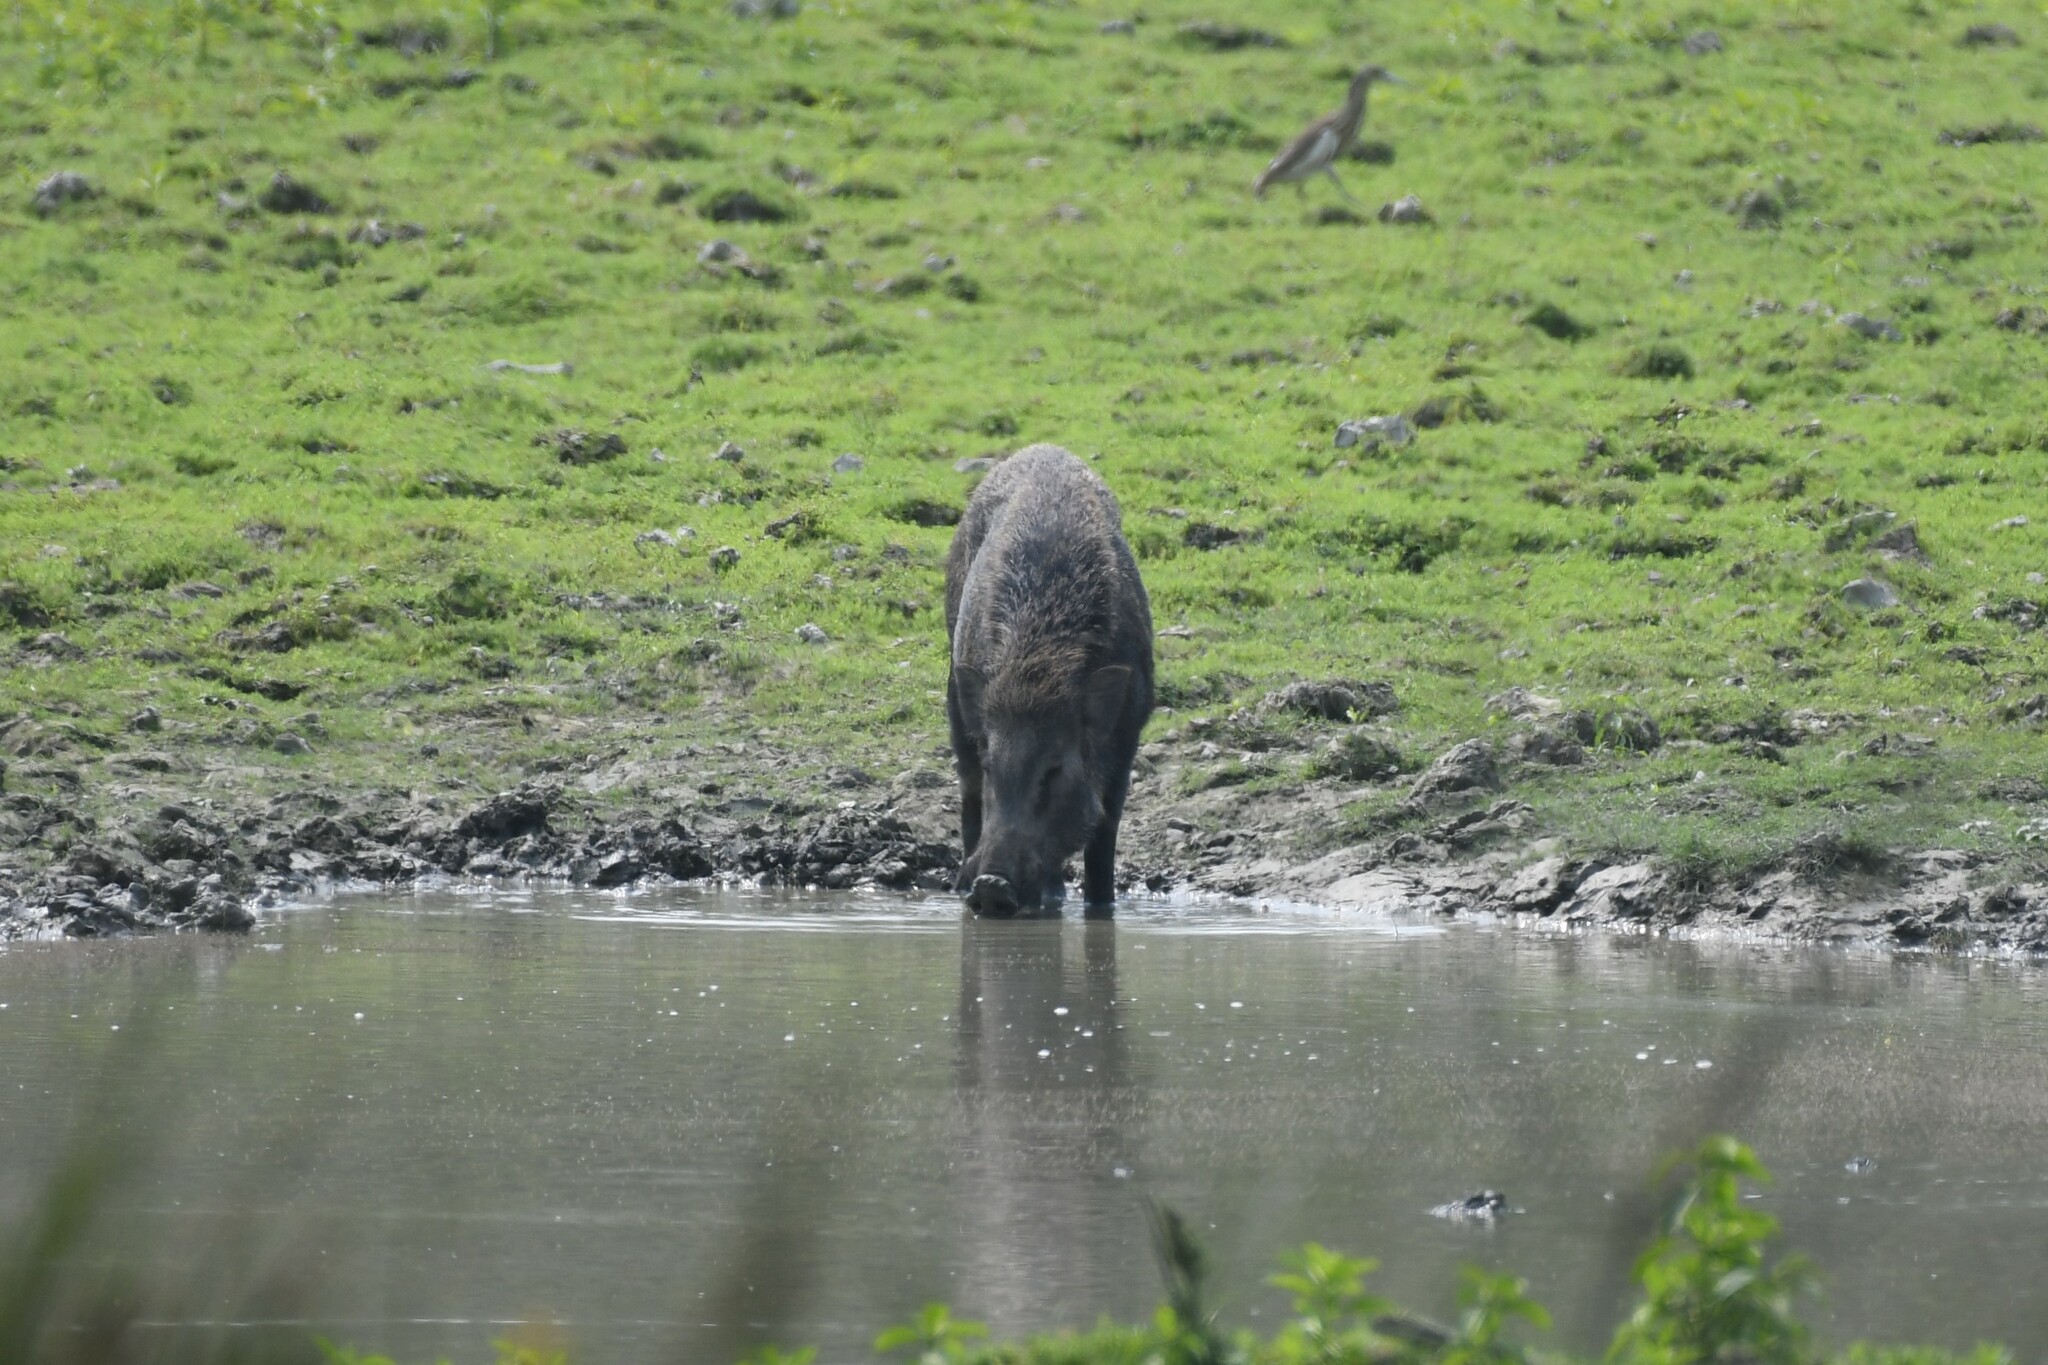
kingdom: Animalia
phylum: Chordata
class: Mammalia
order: Artiodactyla
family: Suidae
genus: Sus
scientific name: Sus scrofa
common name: Wild boar
